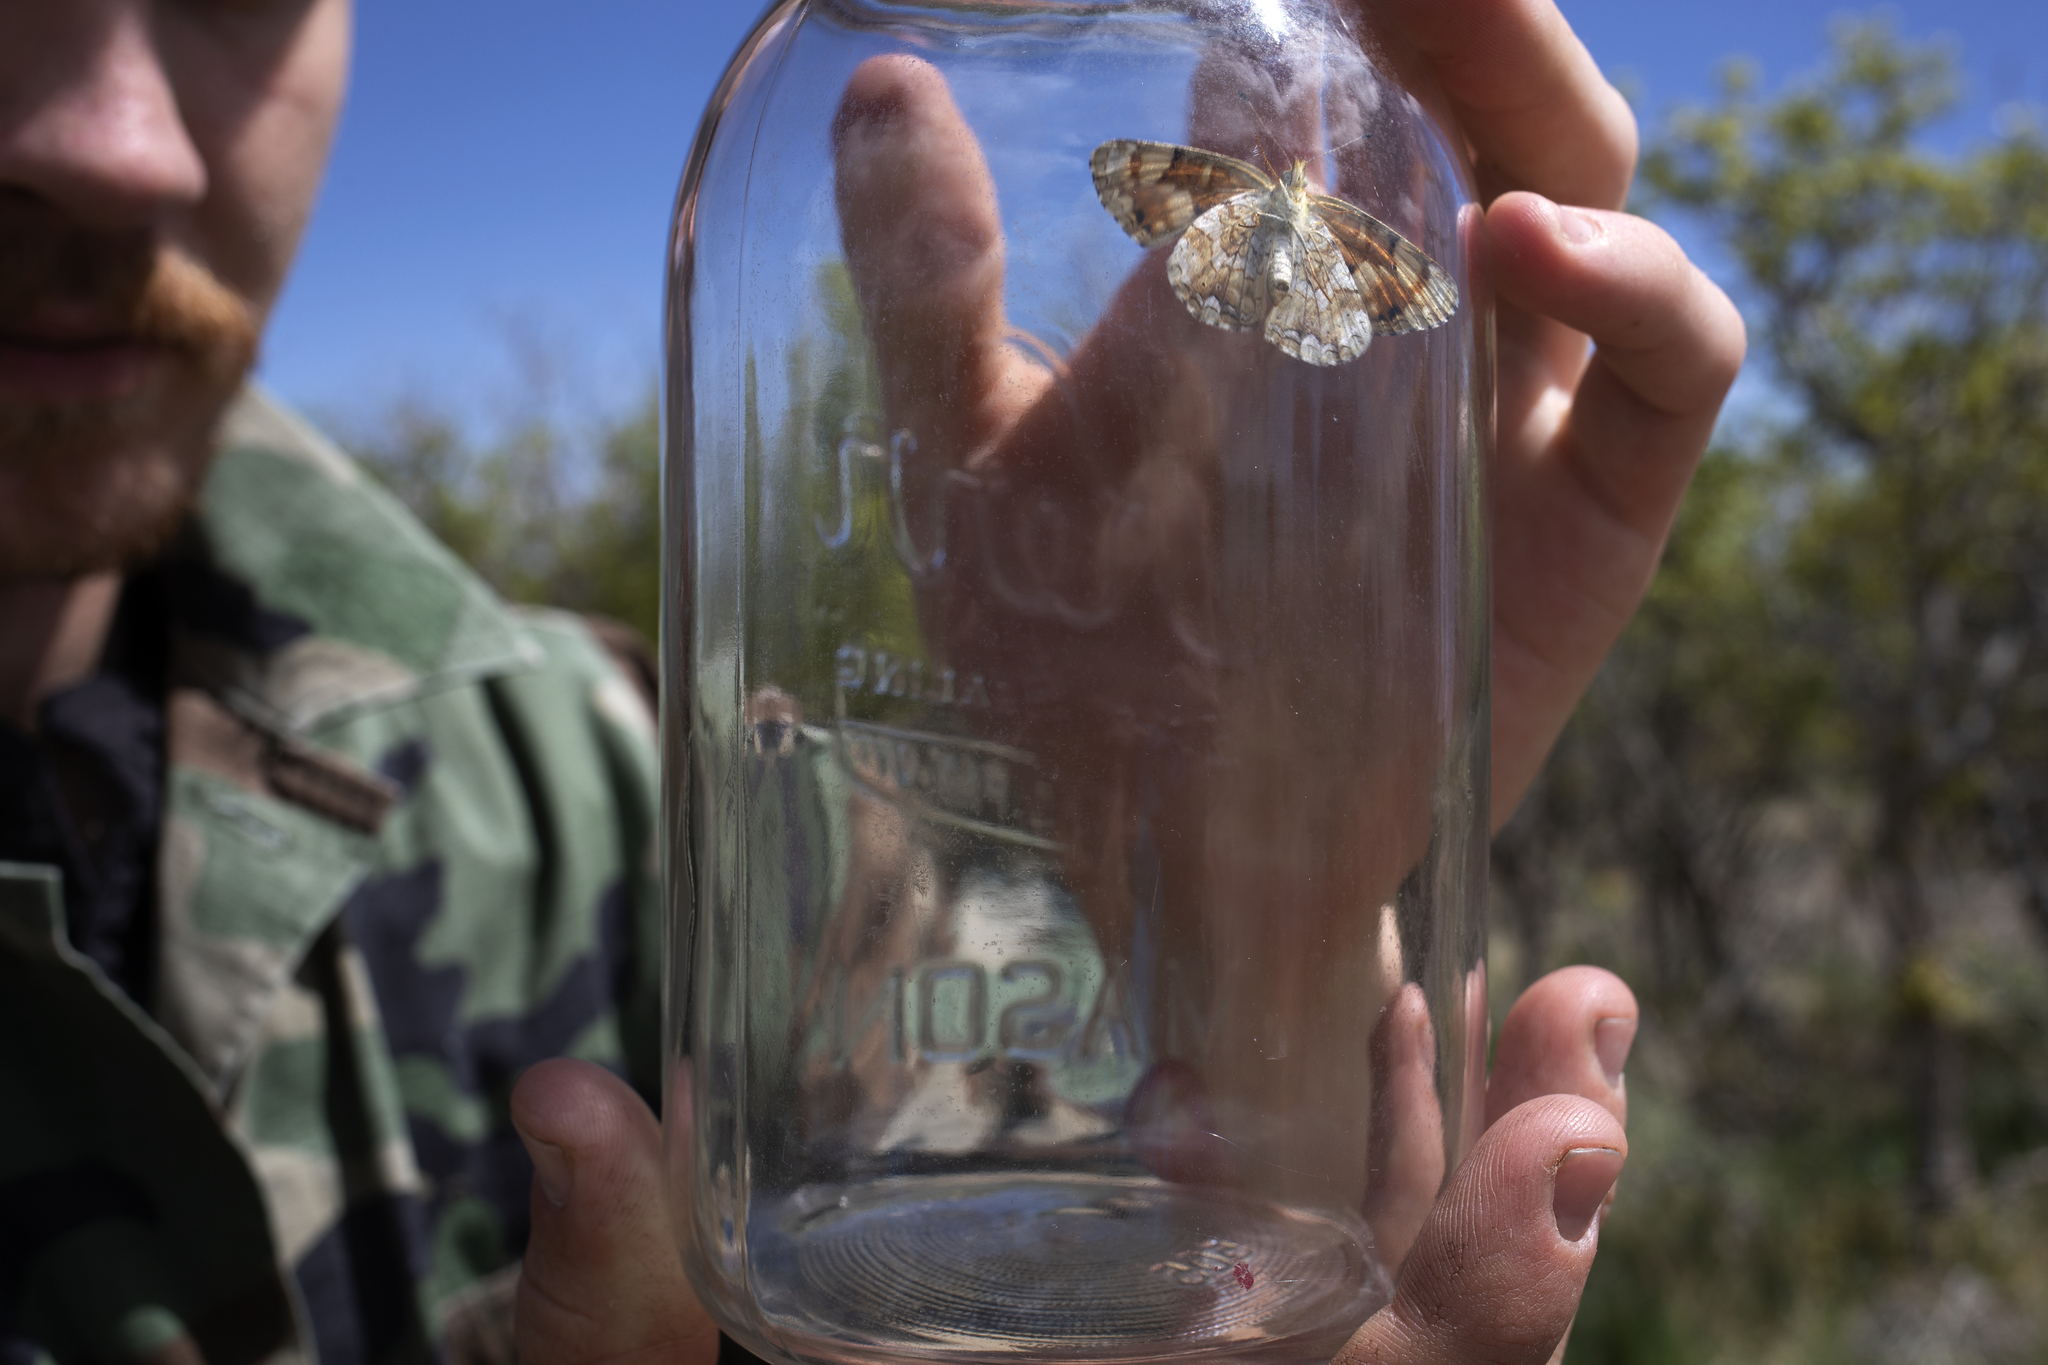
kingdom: Animalia
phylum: Arthropoda
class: Insecta
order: Lepidoptera
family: Nymphalidae
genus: Phyciodes
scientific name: Phyciodes tharos
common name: Pearl crescent
